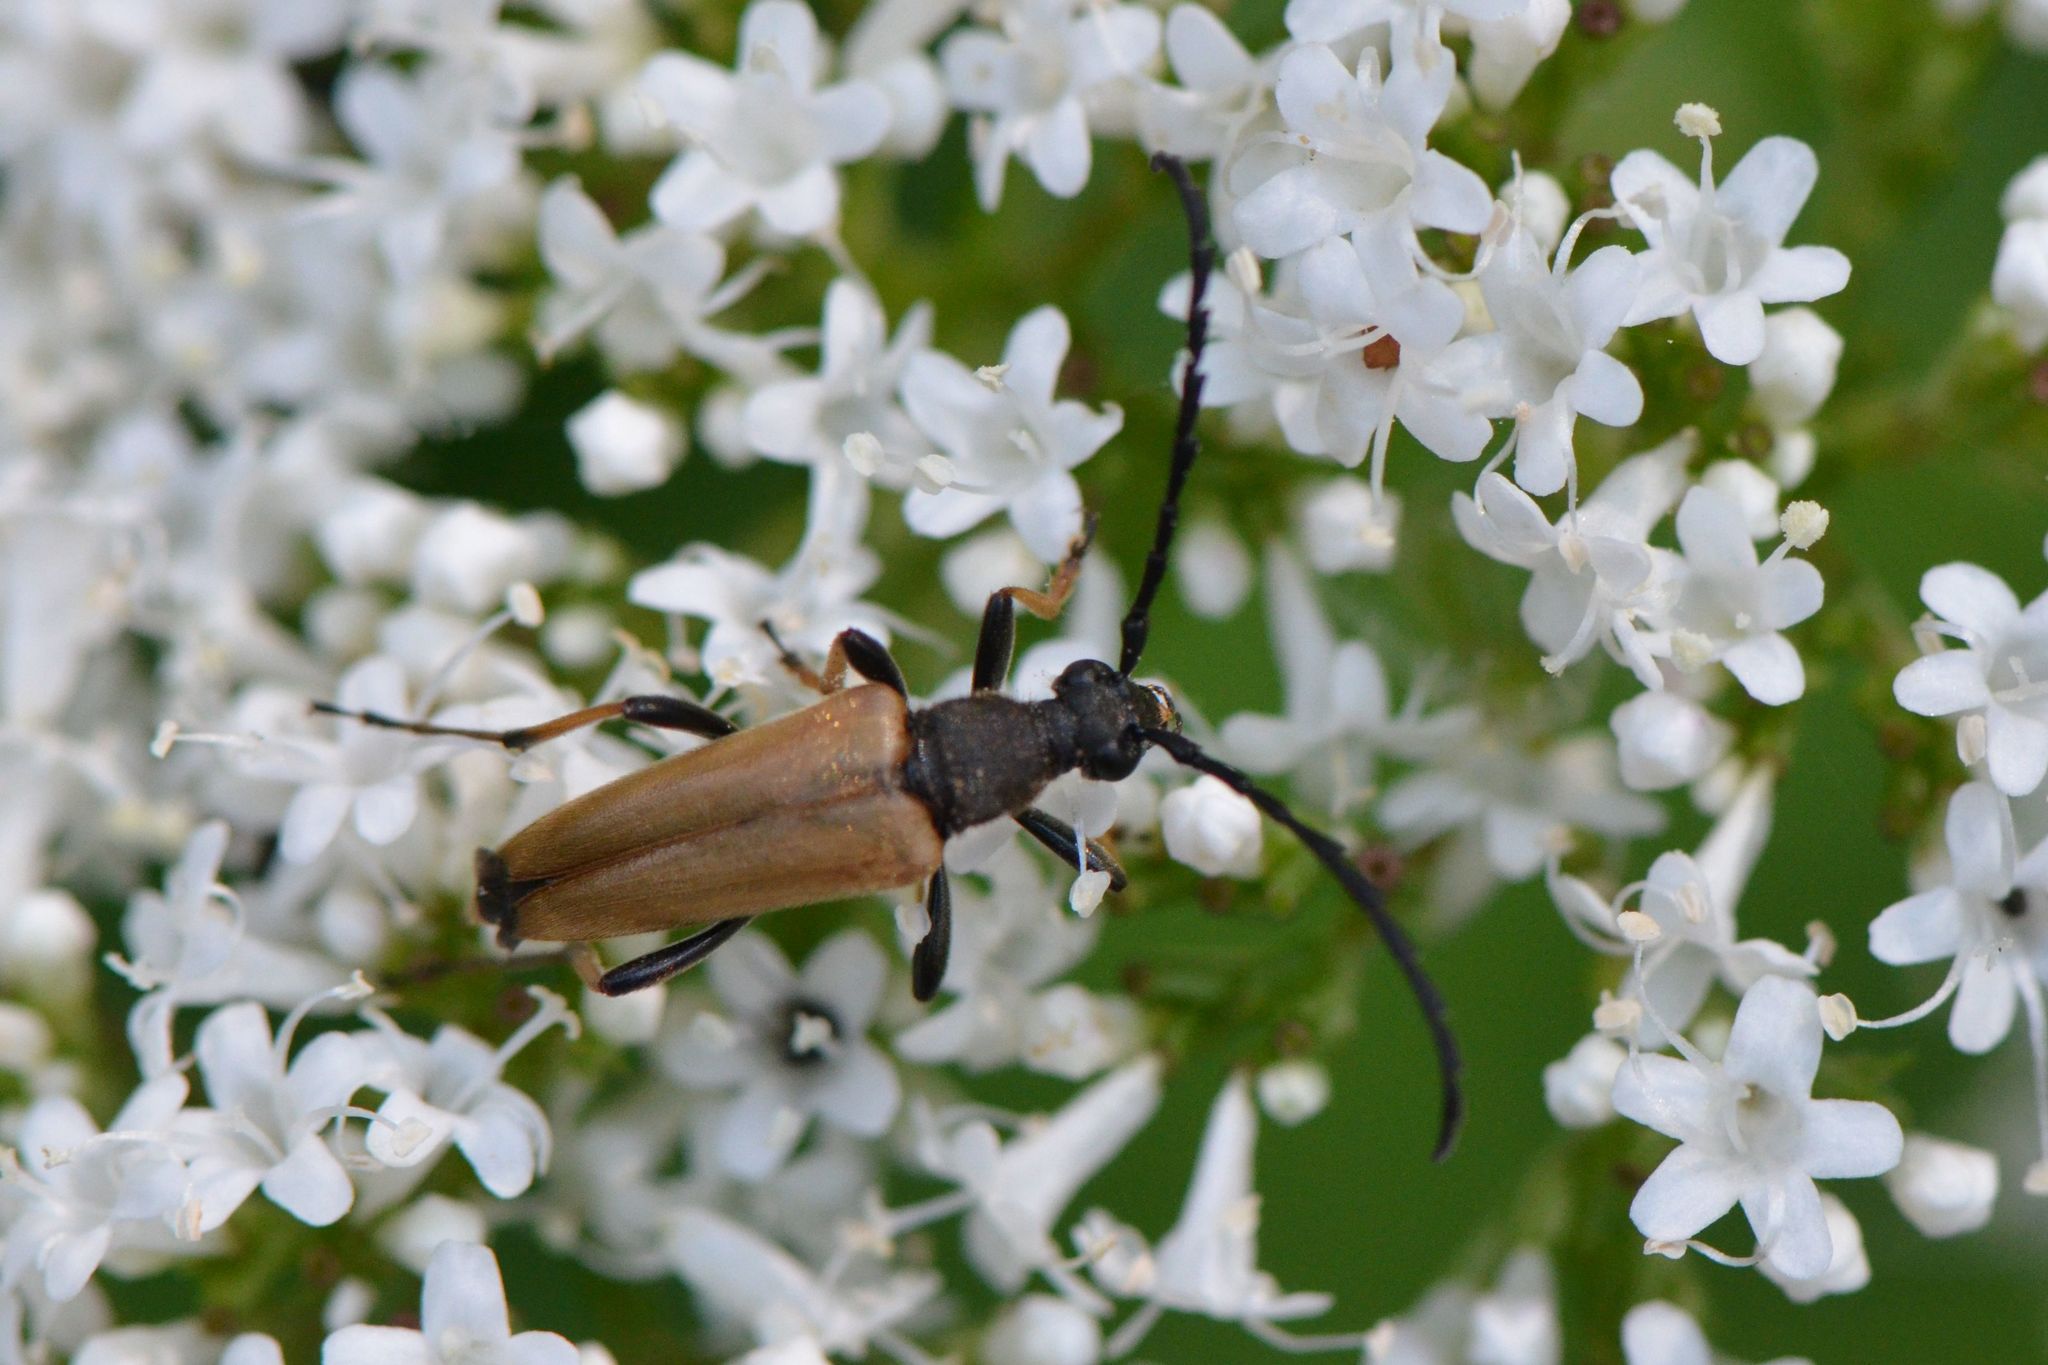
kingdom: Animalia
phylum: Arthropoda
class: Insecta
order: Coleoptera
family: Cerambycidae
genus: Stictoleptura
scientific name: Stictoleptura rubra
